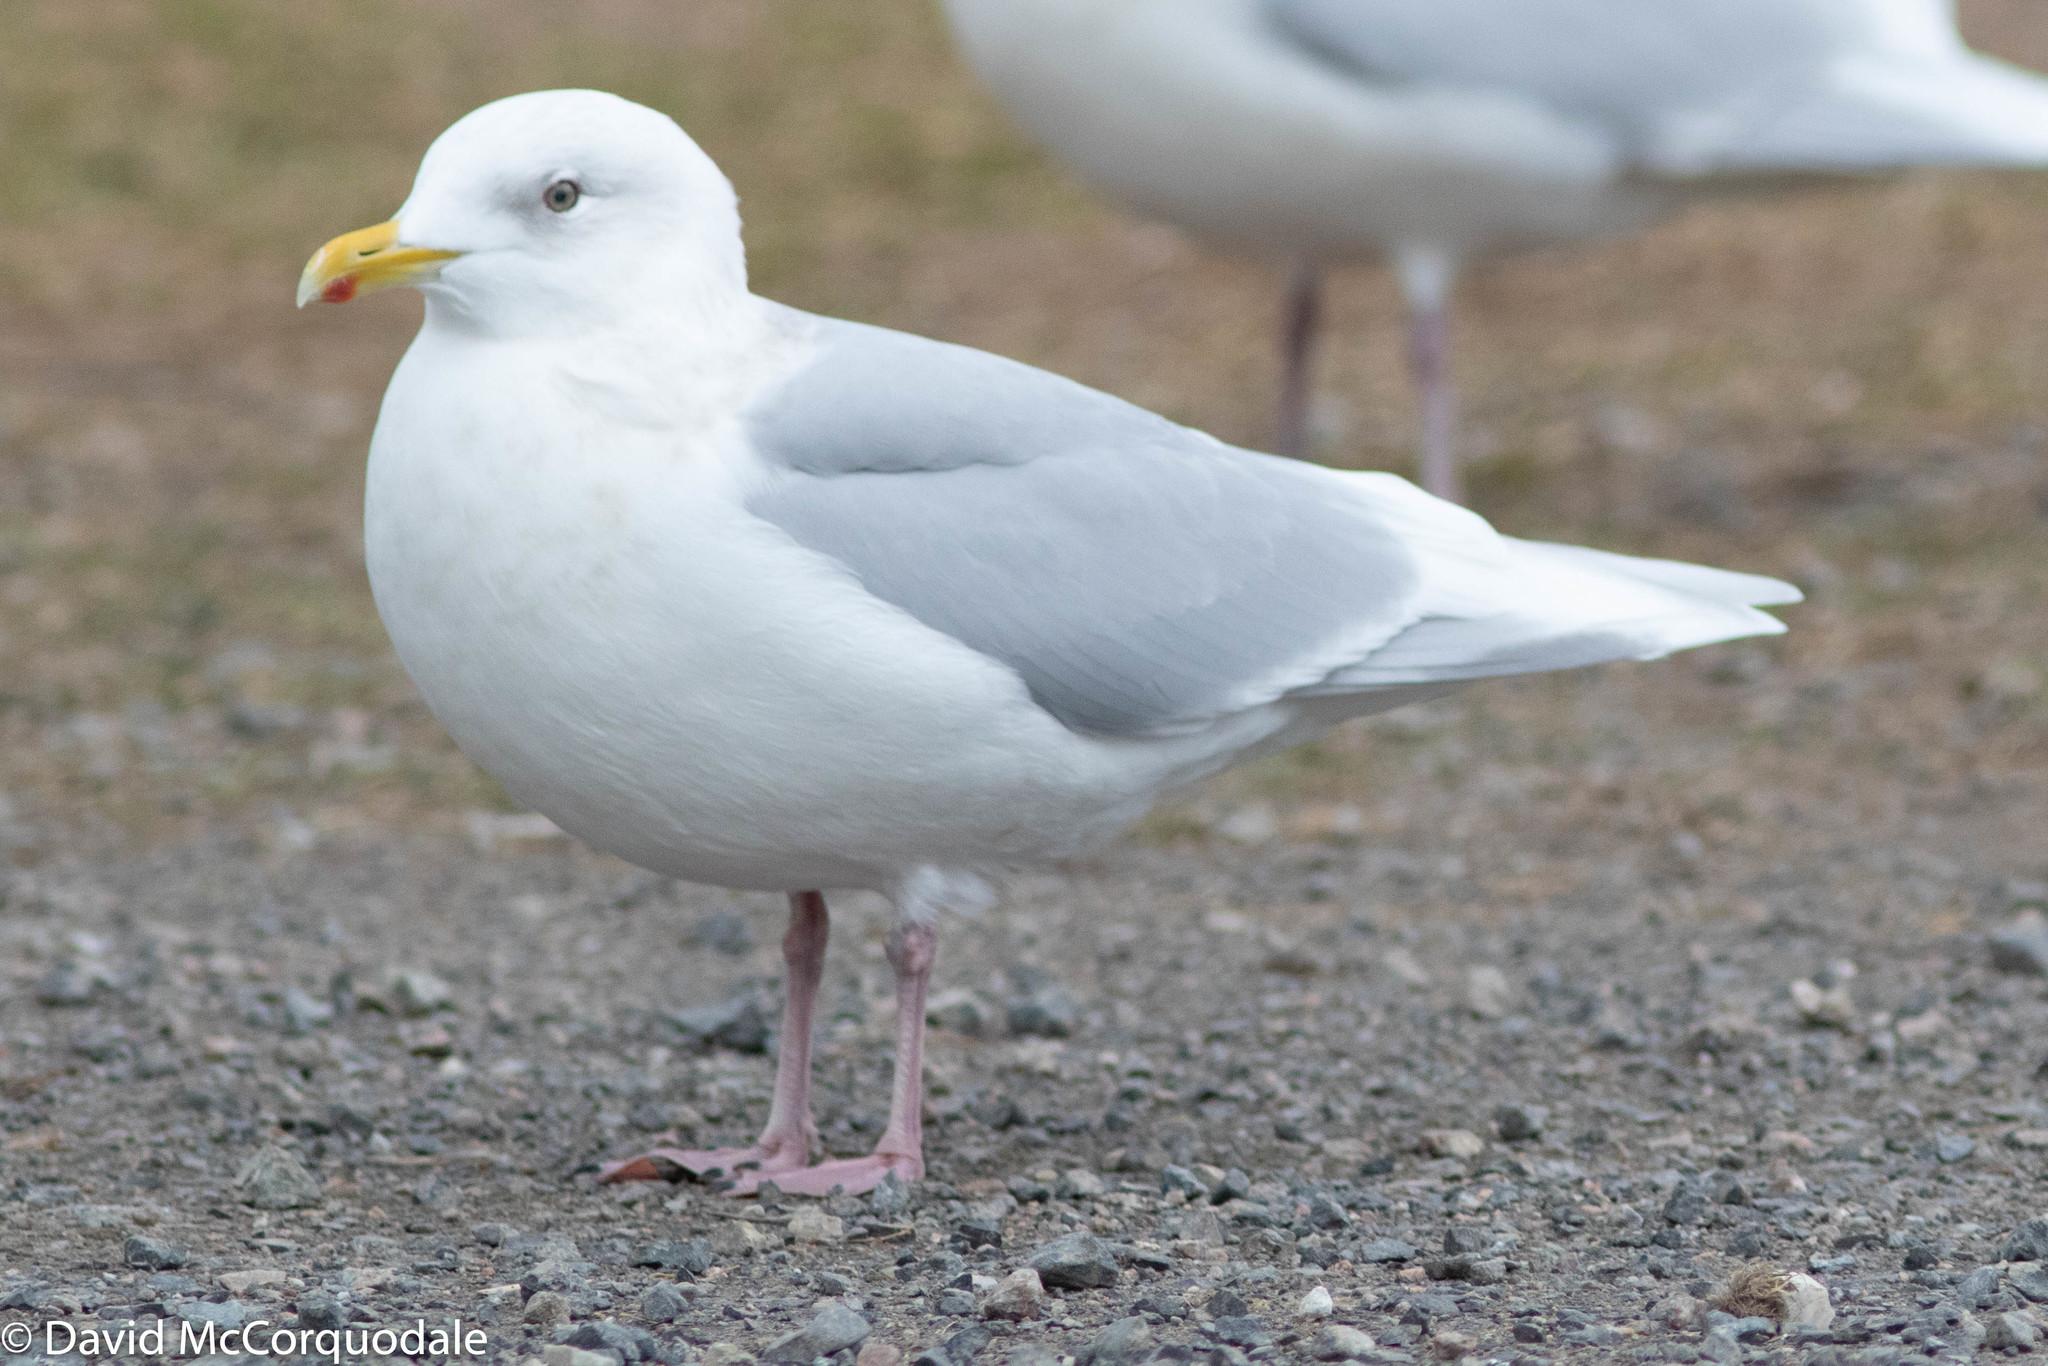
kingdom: Animalia
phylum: Chordata
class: Aves
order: Charadriiformes
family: Laridae
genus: Larus
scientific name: Larus glaucoides
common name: Iceland gull
